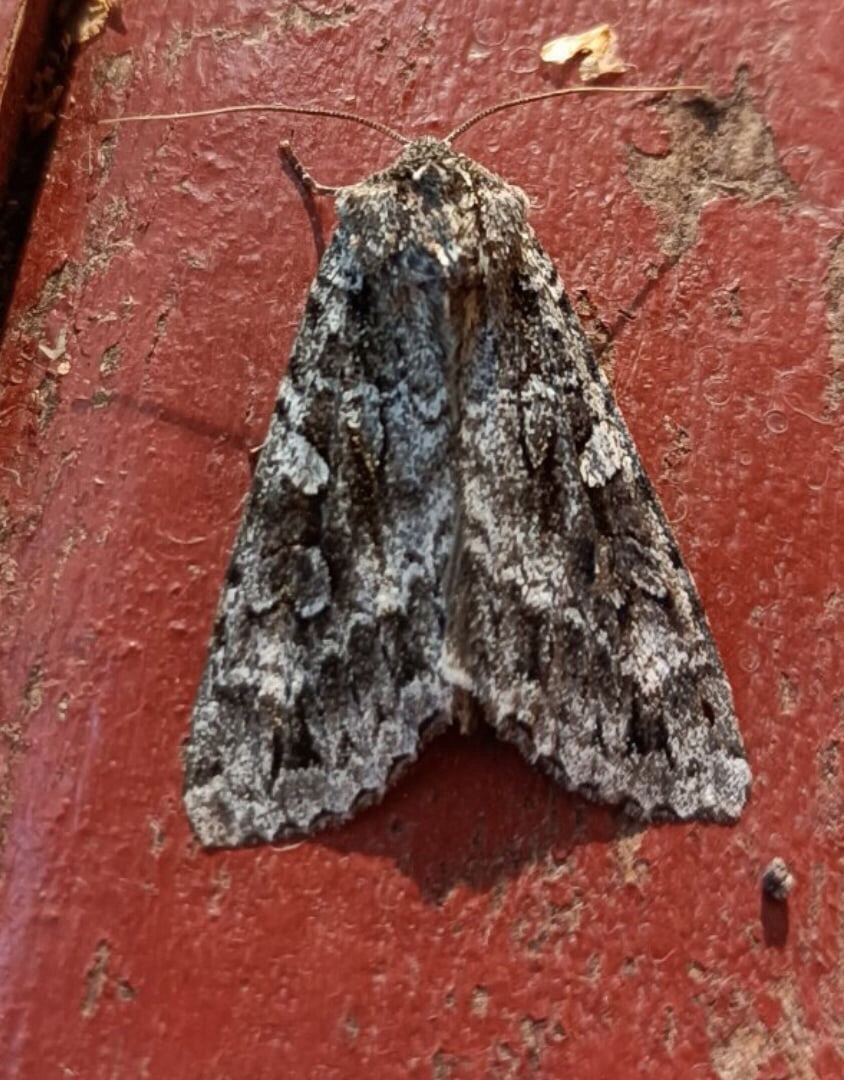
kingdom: Animalia
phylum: Arthropoda
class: Insecta
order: Lepidoptera
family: Noctuidae
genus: Eurois
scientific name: Eurois occulta
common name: Great brocade
